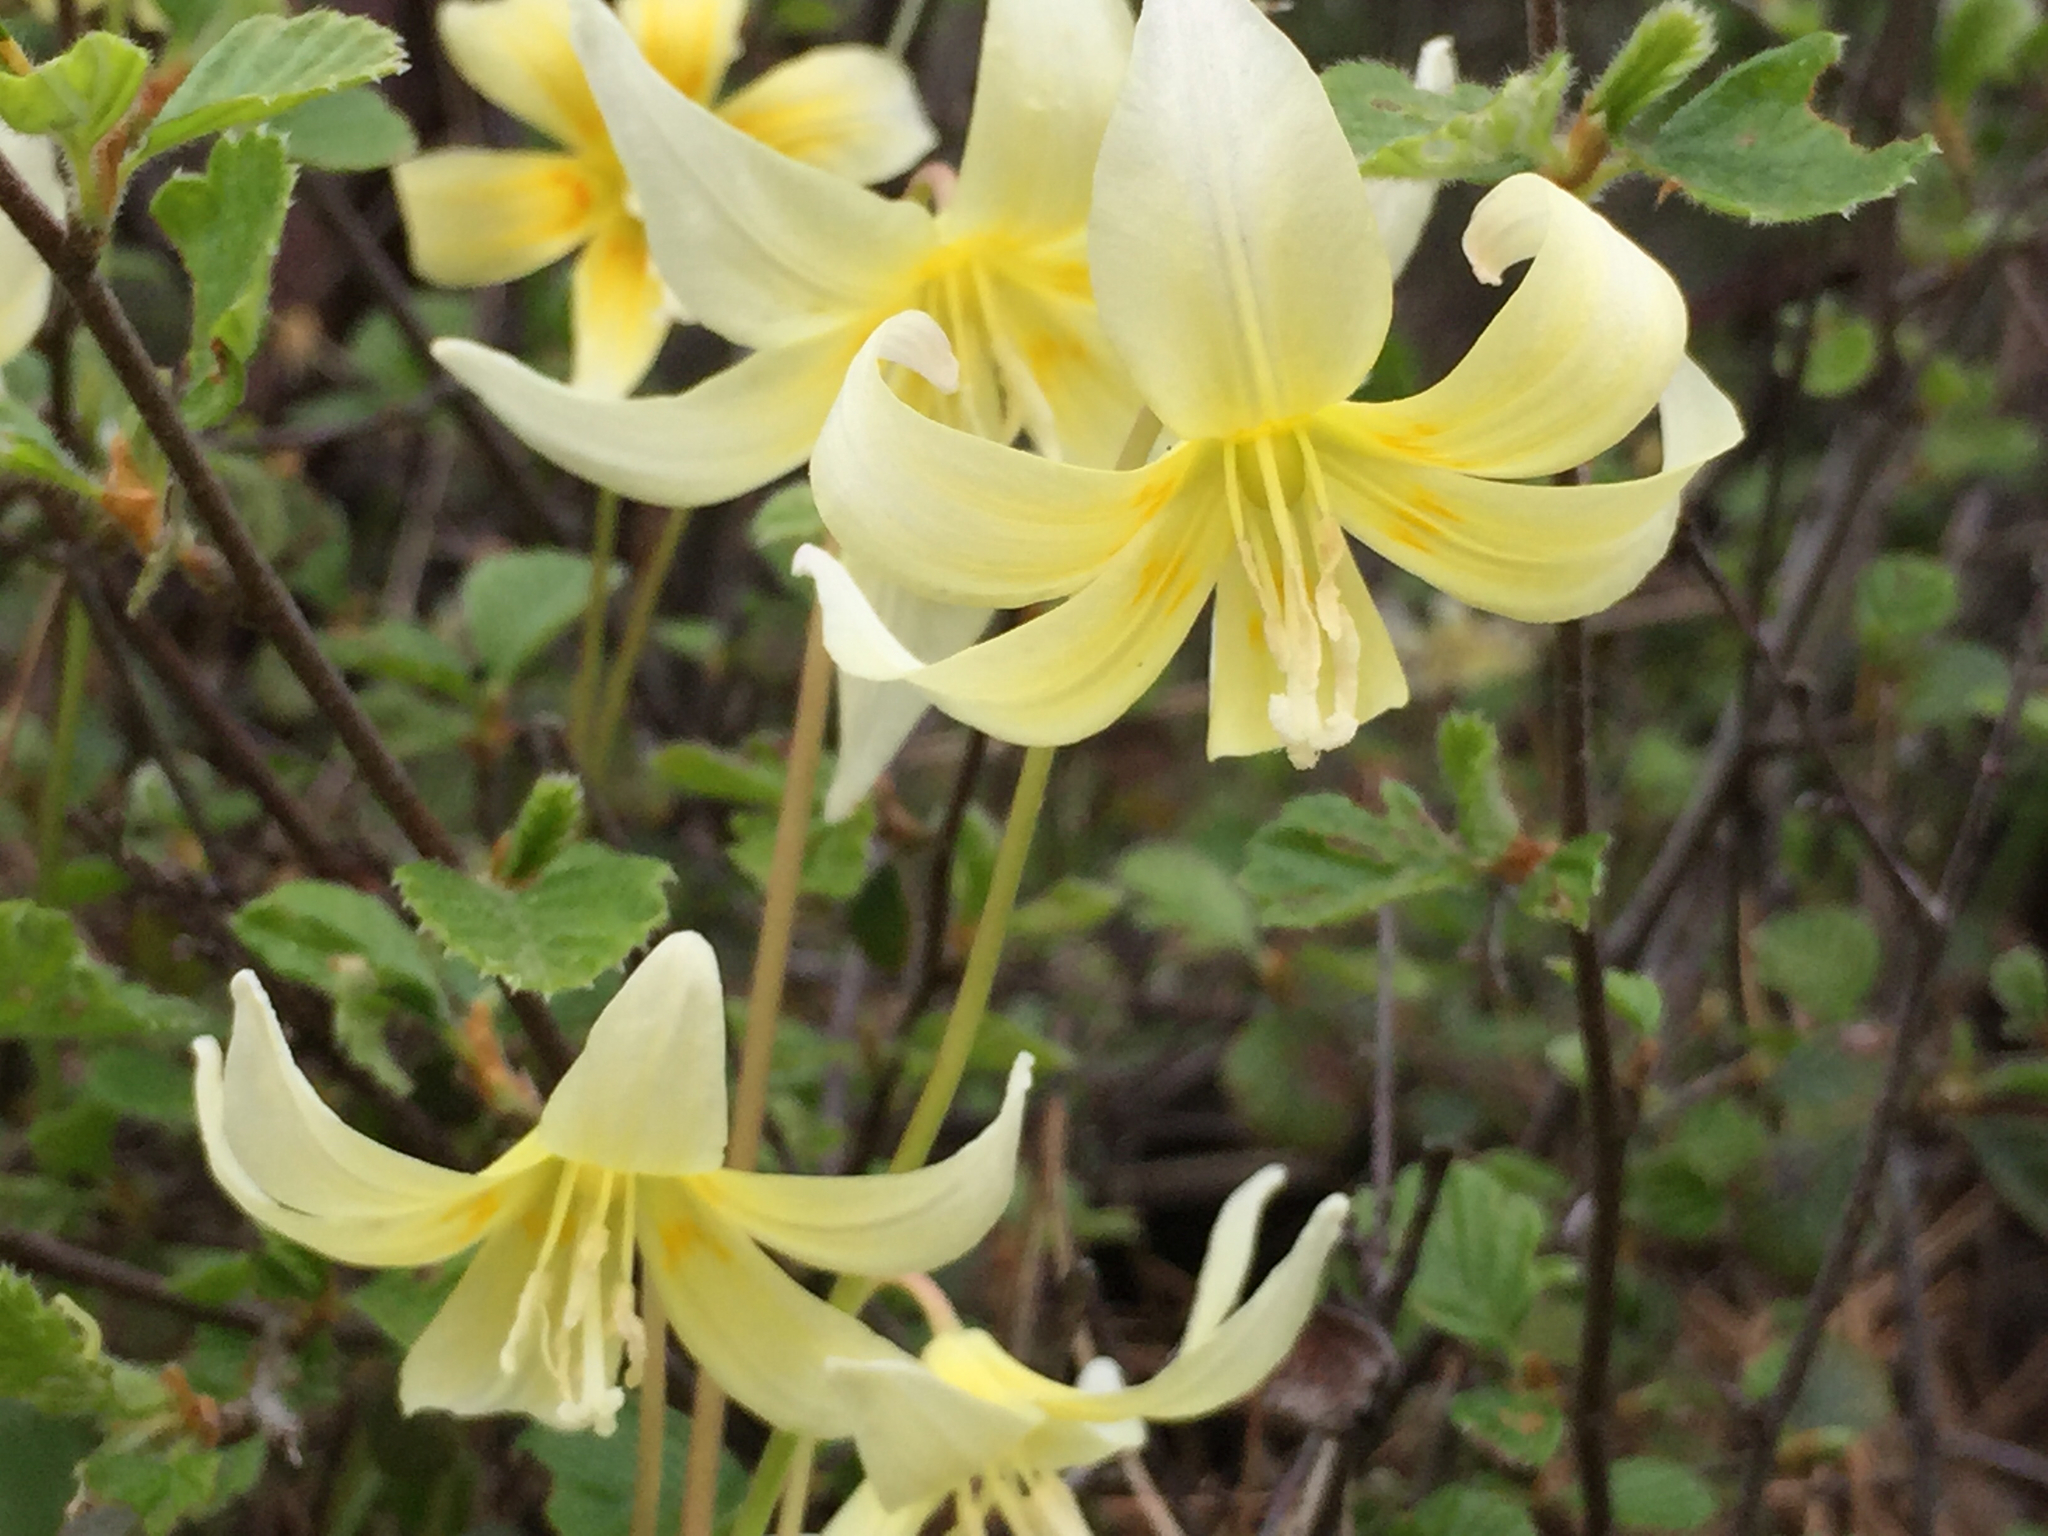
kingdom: Plantae
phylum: Tracheophyta
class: Liliopsida
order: Liliales
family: Liliaceae
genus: Erythronium
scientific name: Erythronium californicum
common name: Fawn-lily
